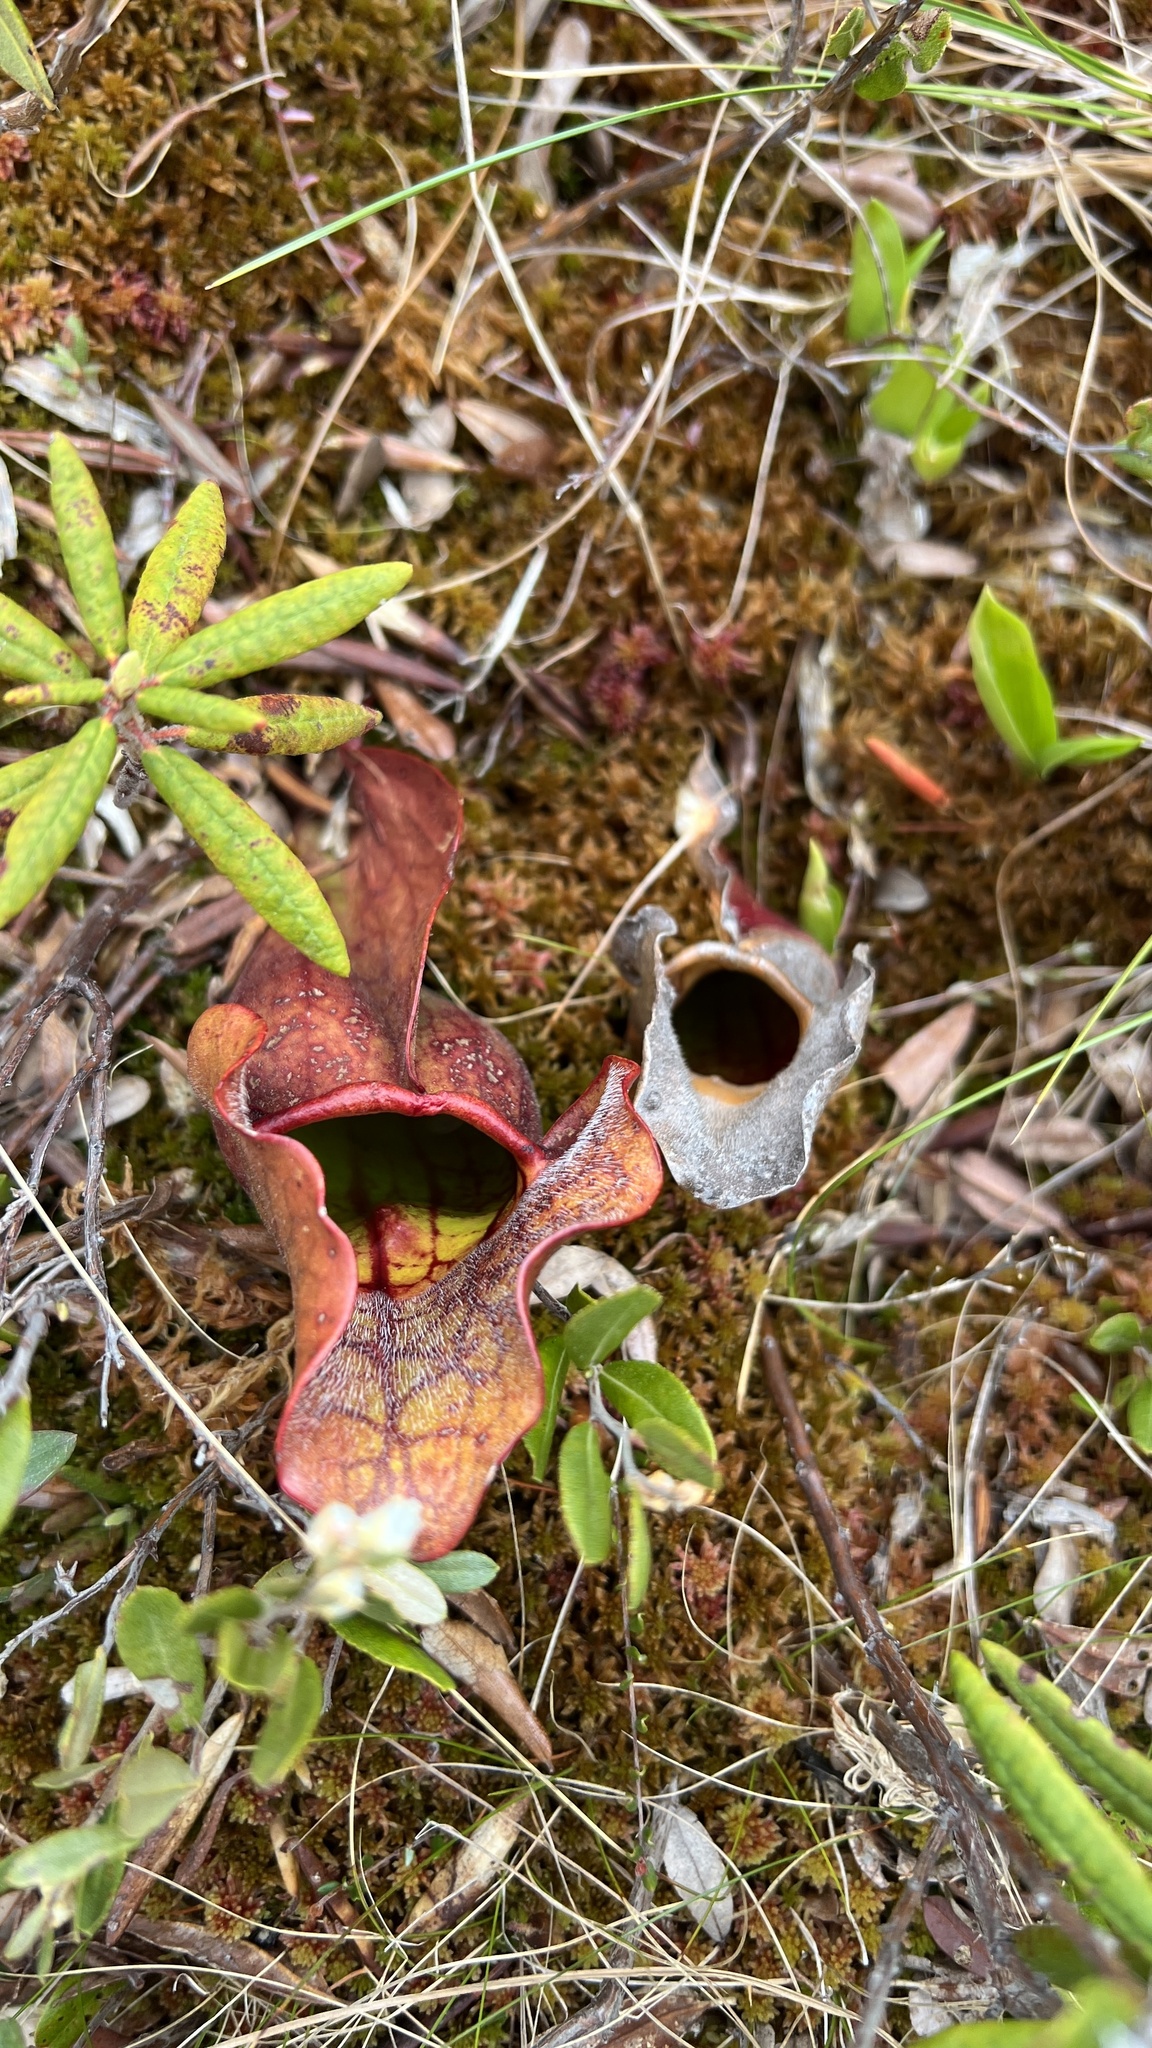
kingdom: Plantae
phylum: Tracheophyta
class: Magnoliopsida
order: Ericales
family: Sarraceniaceae
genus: Sarracenia
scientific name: Sarracenia purpurea
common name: Pitcherplant
